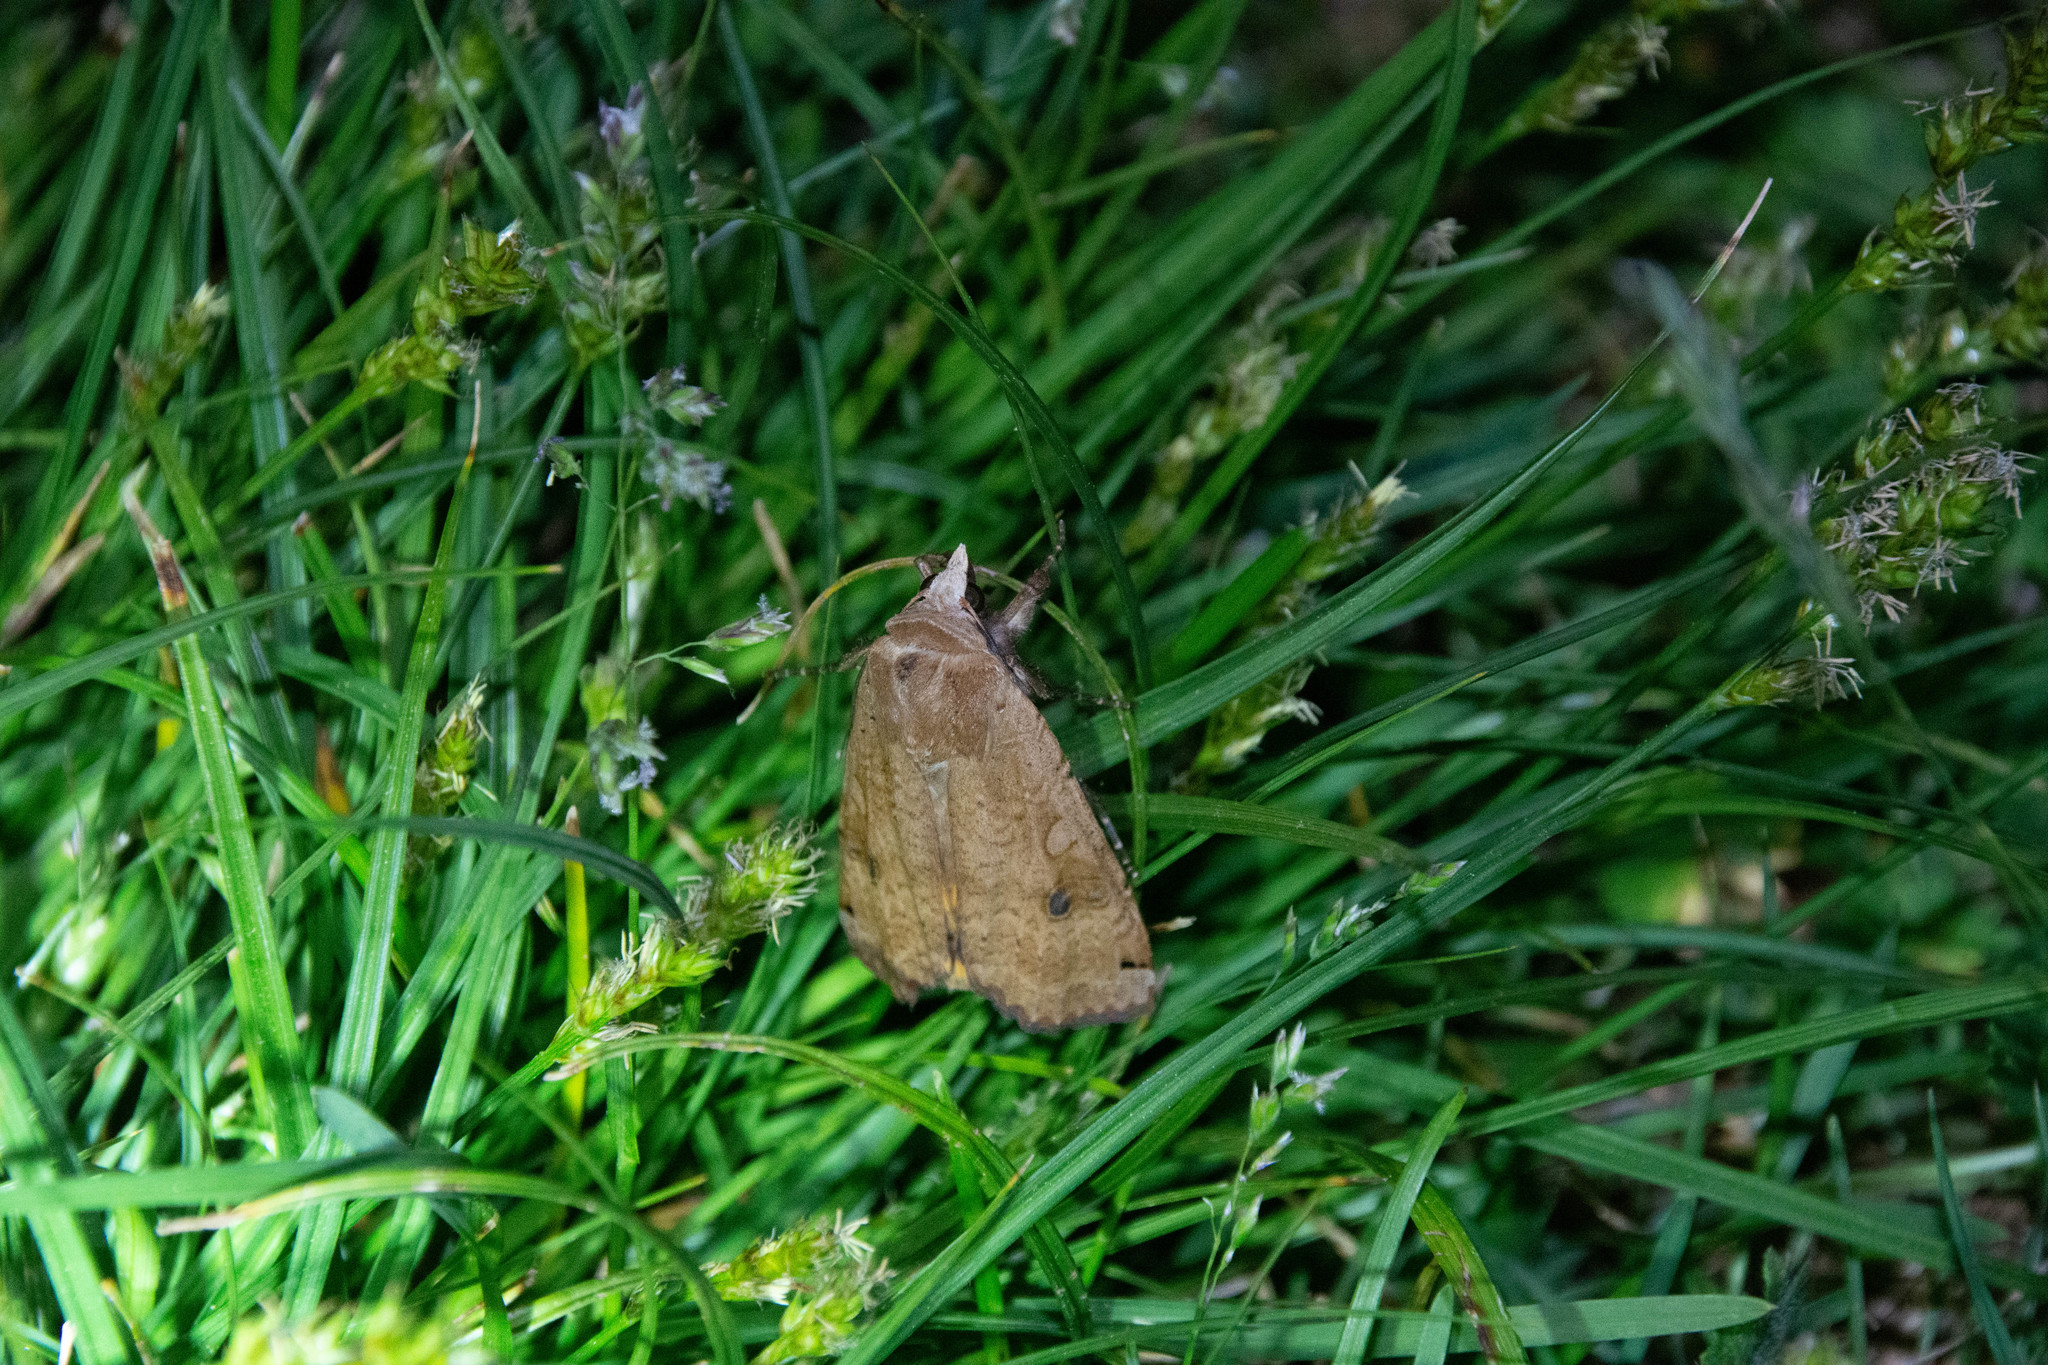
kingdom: Animalia
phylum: Arthropoda
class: Insecta
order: Lepidoptera
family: Noctuidae
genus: Noctua
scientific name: Noctua pronuba
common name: Large yellow underwing
